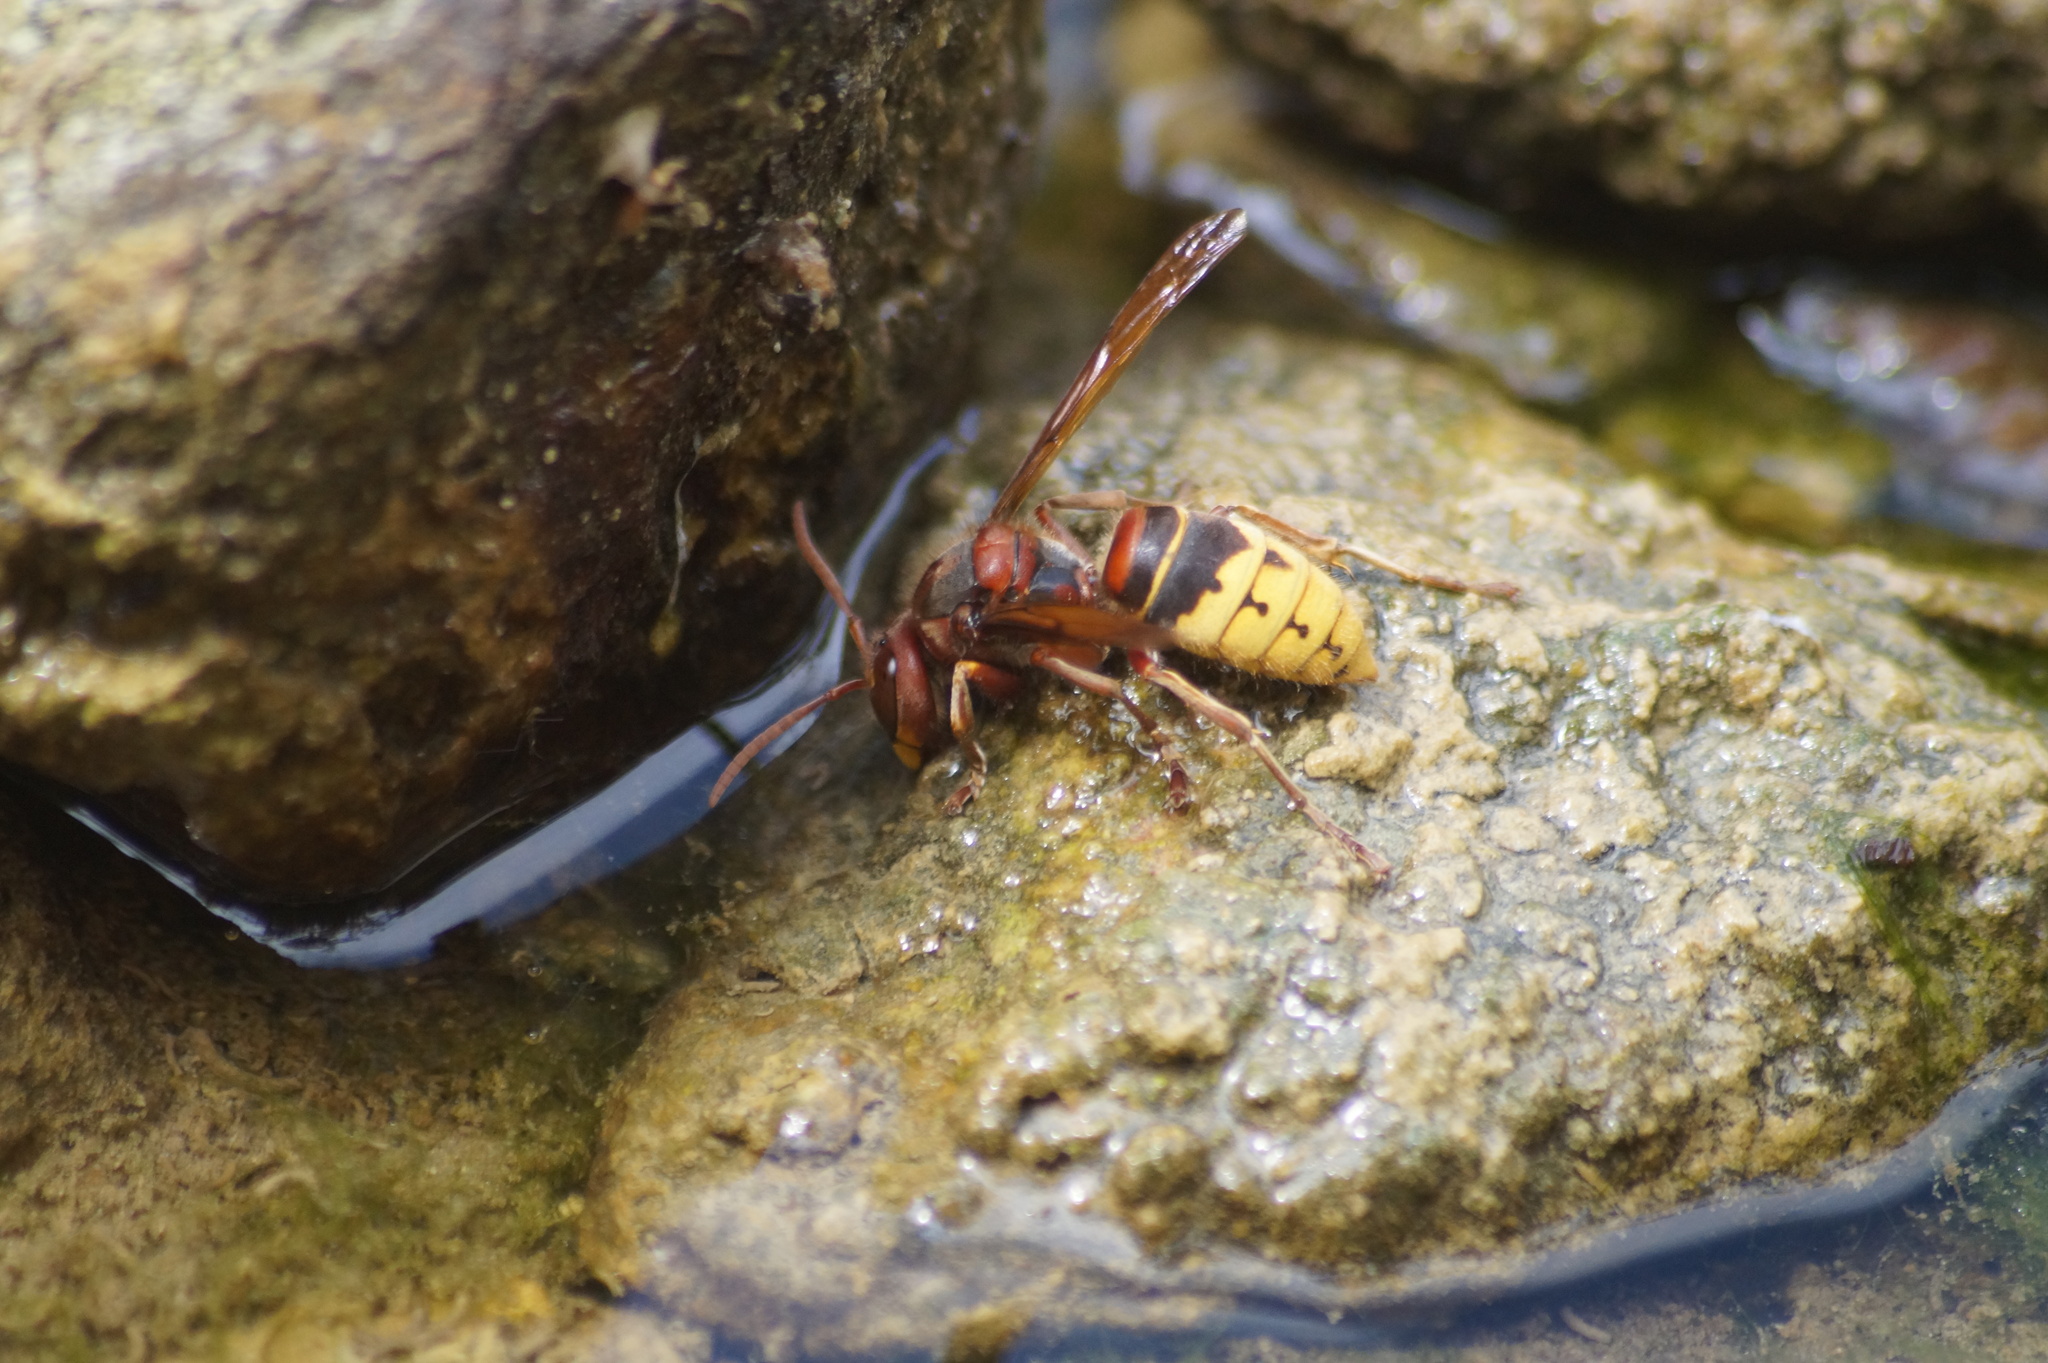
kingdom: Animalia
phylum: Arthropoda
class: Insecta
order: Hymenoptera
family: Vespidae
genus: Vespa
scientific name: Vespa crabro
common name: Hornet
